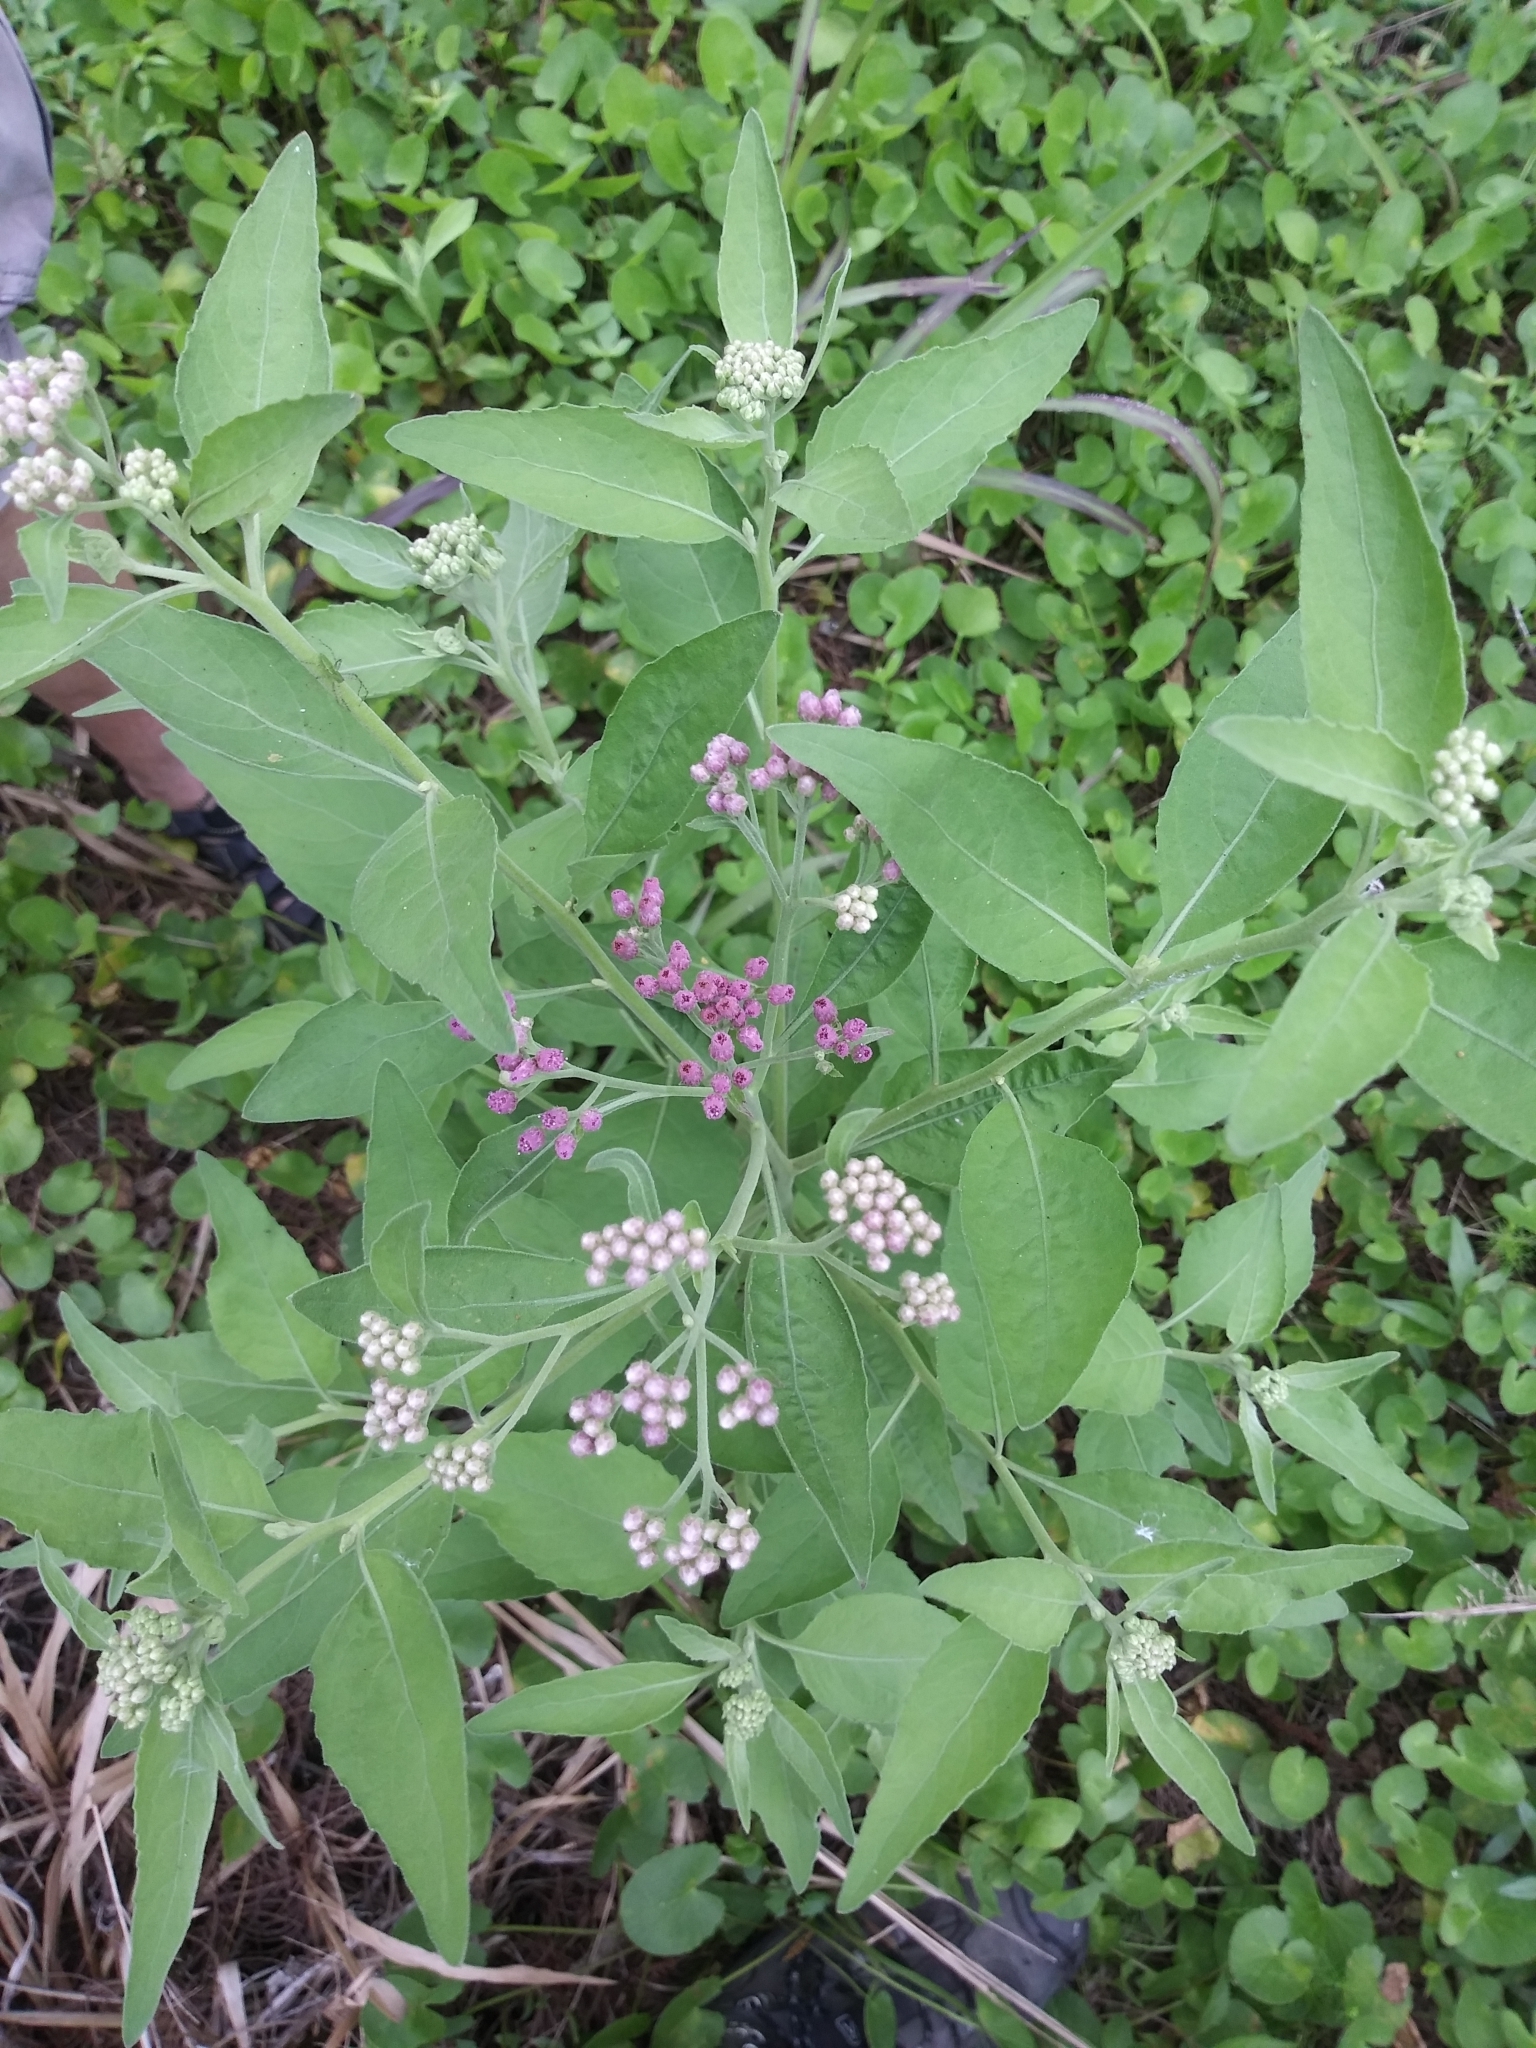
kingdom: Plantae
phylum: Tracheophyta
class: Magnoliopsida
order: Asterales
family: Asteraceae
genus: Pluchea
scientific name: Pluchea odorata
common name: Saltmarsh fleabane
